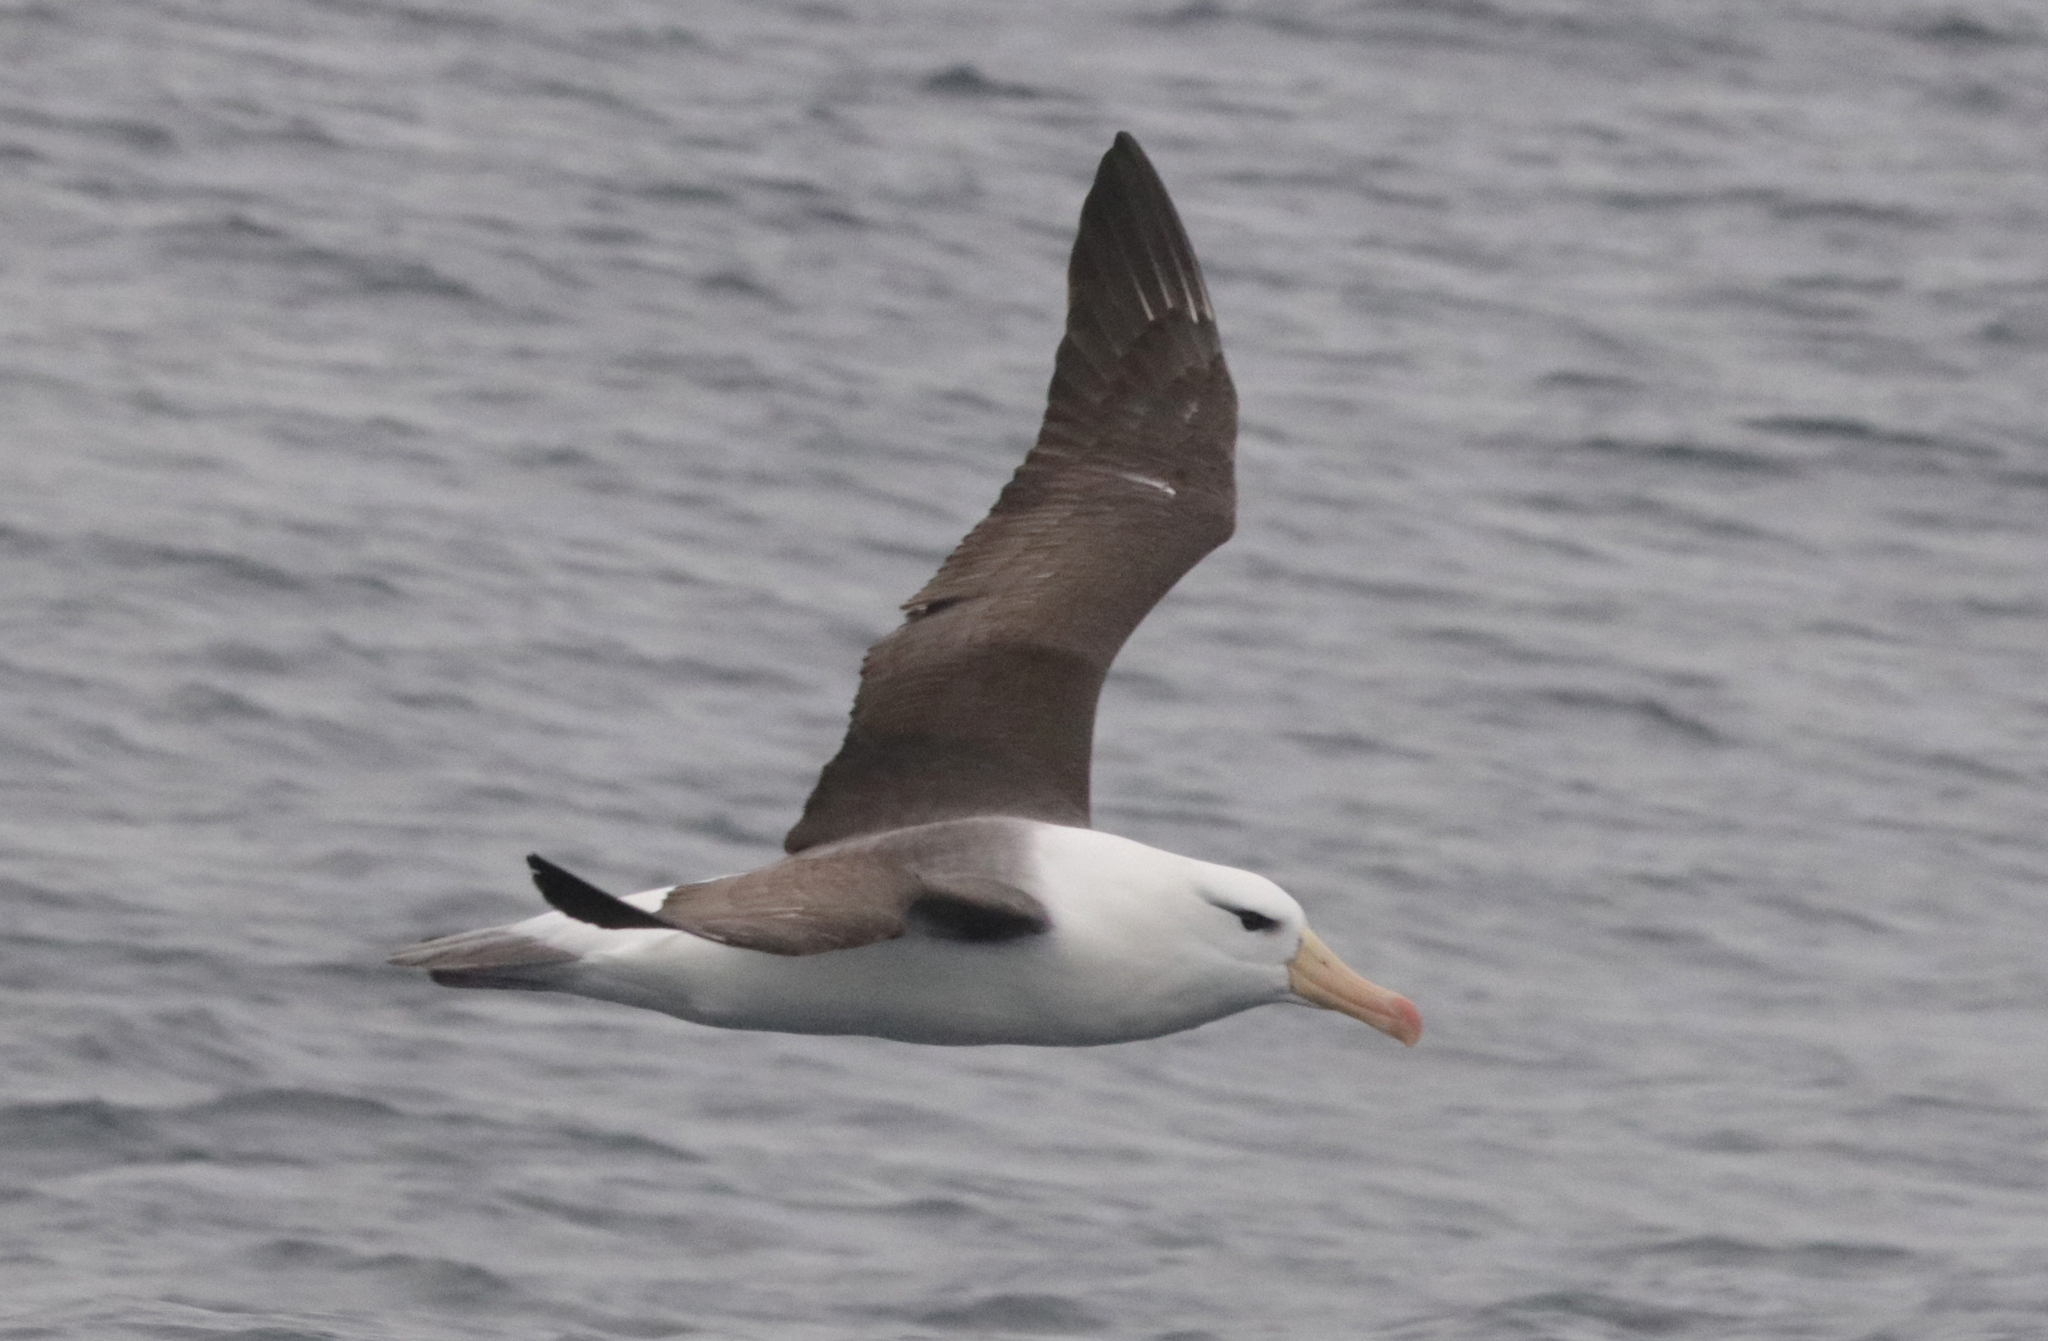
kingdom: Animalia
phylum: Chordata
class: Aves
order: Procellariiformes
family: Diomedeidae
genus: Thalassarche
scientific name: Thalassarche melanophris
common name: Black-browed albatross
